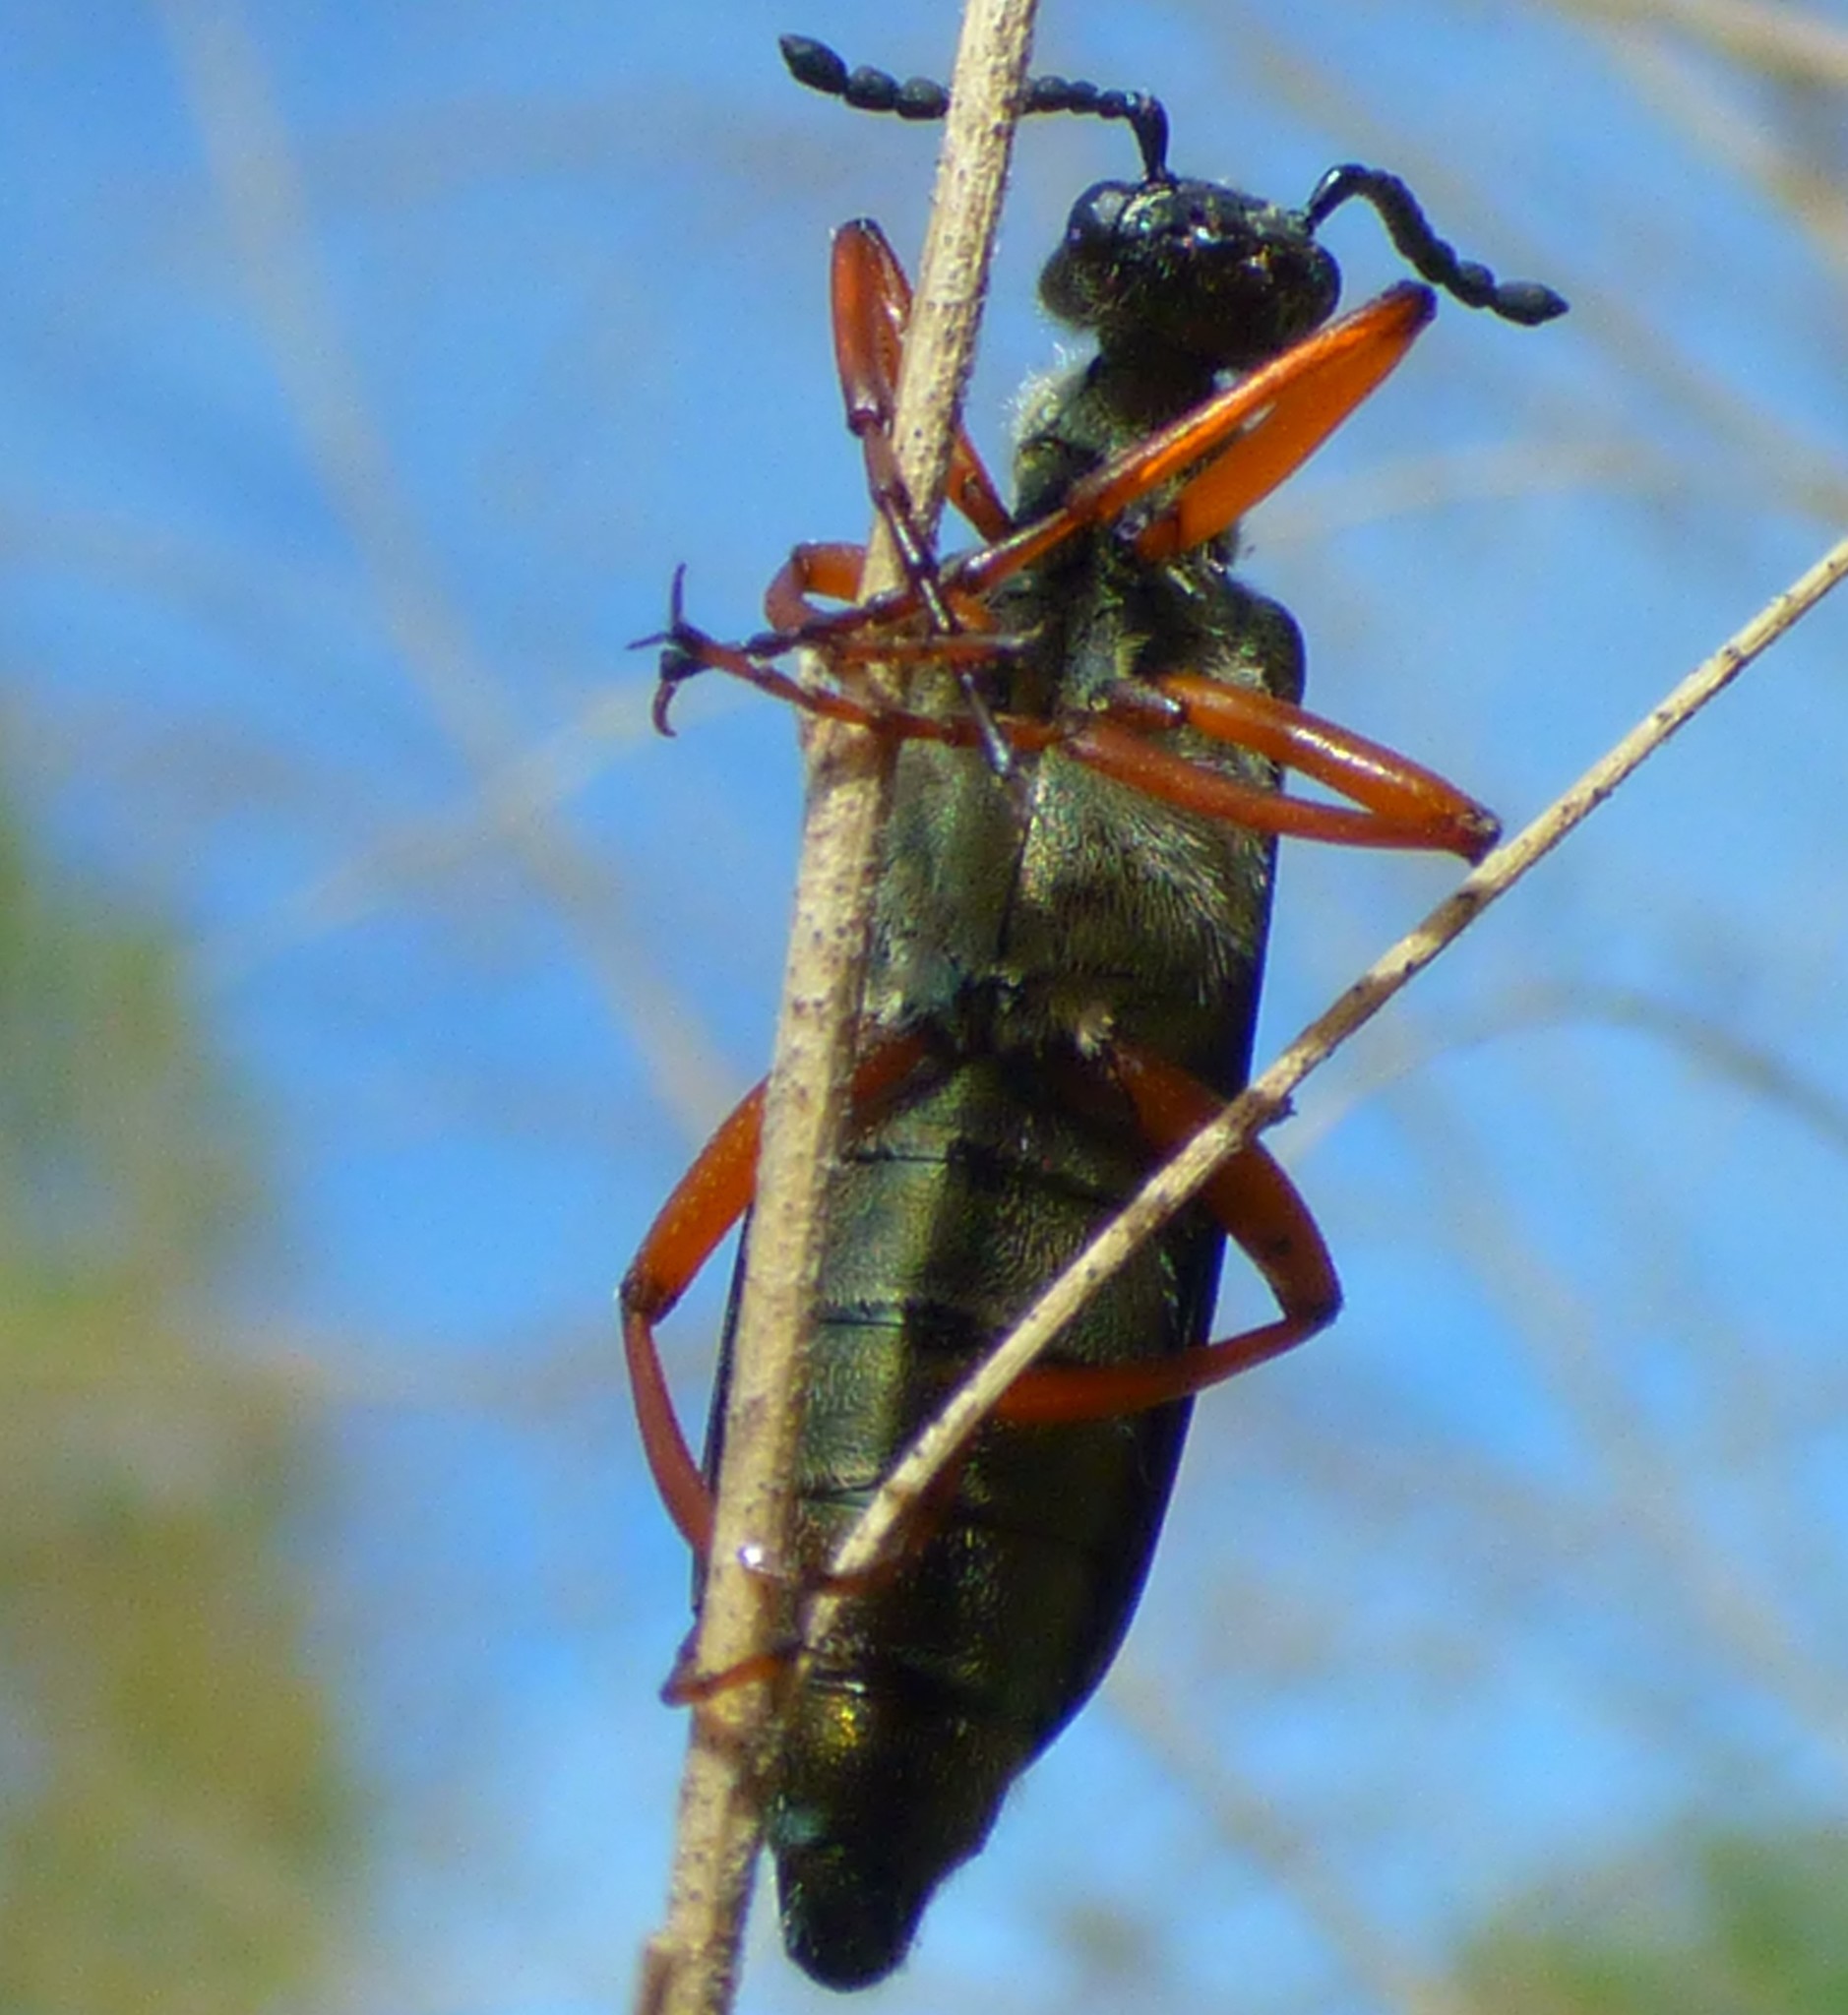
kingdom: Animalia
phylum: Arthropoda
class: Insecta
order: Coleoptera
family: Meloidae
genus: Lytta
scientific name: Lytta aenea
